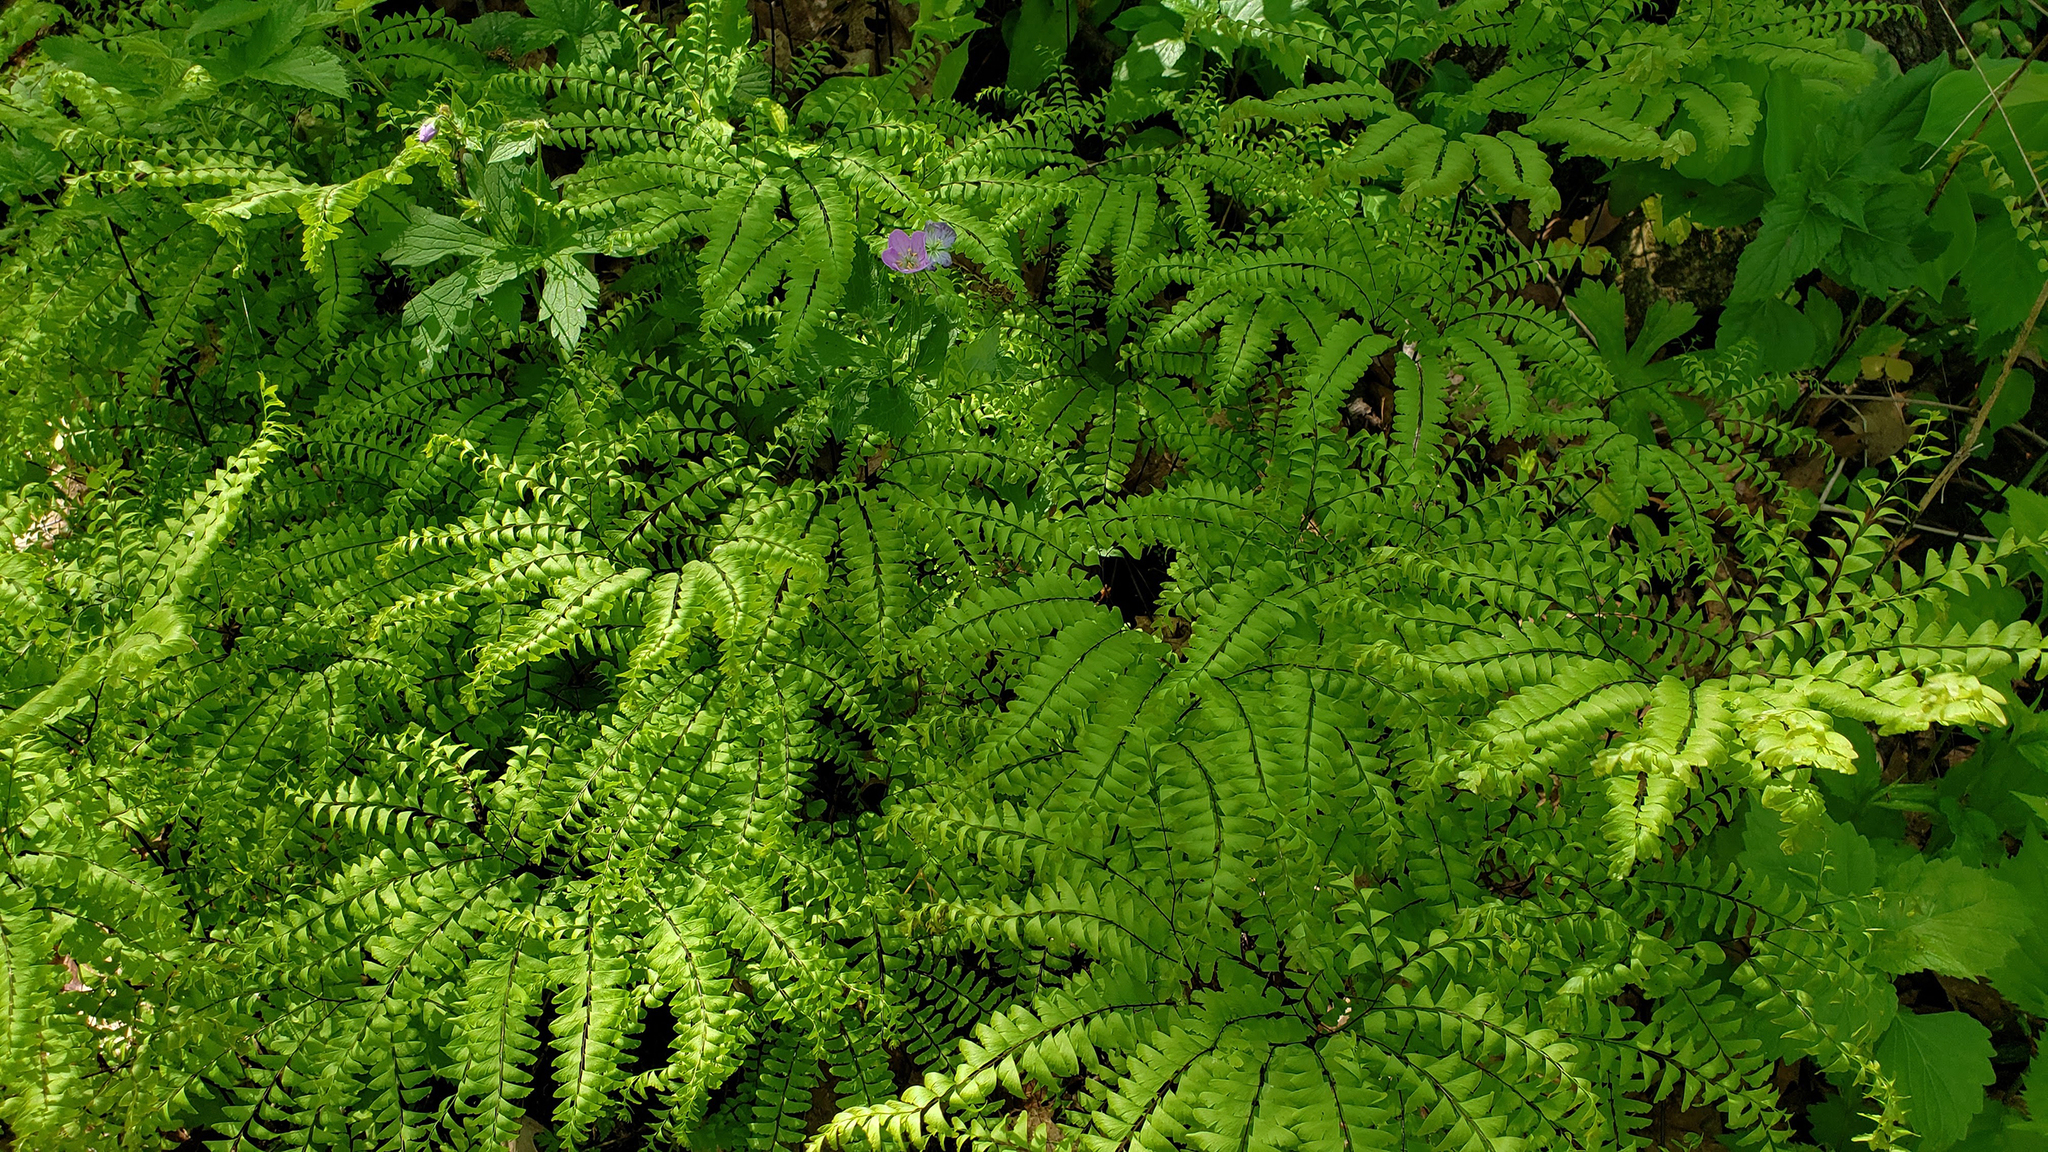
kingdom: Plantae
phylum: Tracheophyta
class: Polypodiopsida
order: Polypodiales
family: Pteridaceae
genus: Adiantum
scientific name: Adiantum pedatum
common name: Five-finger fern
